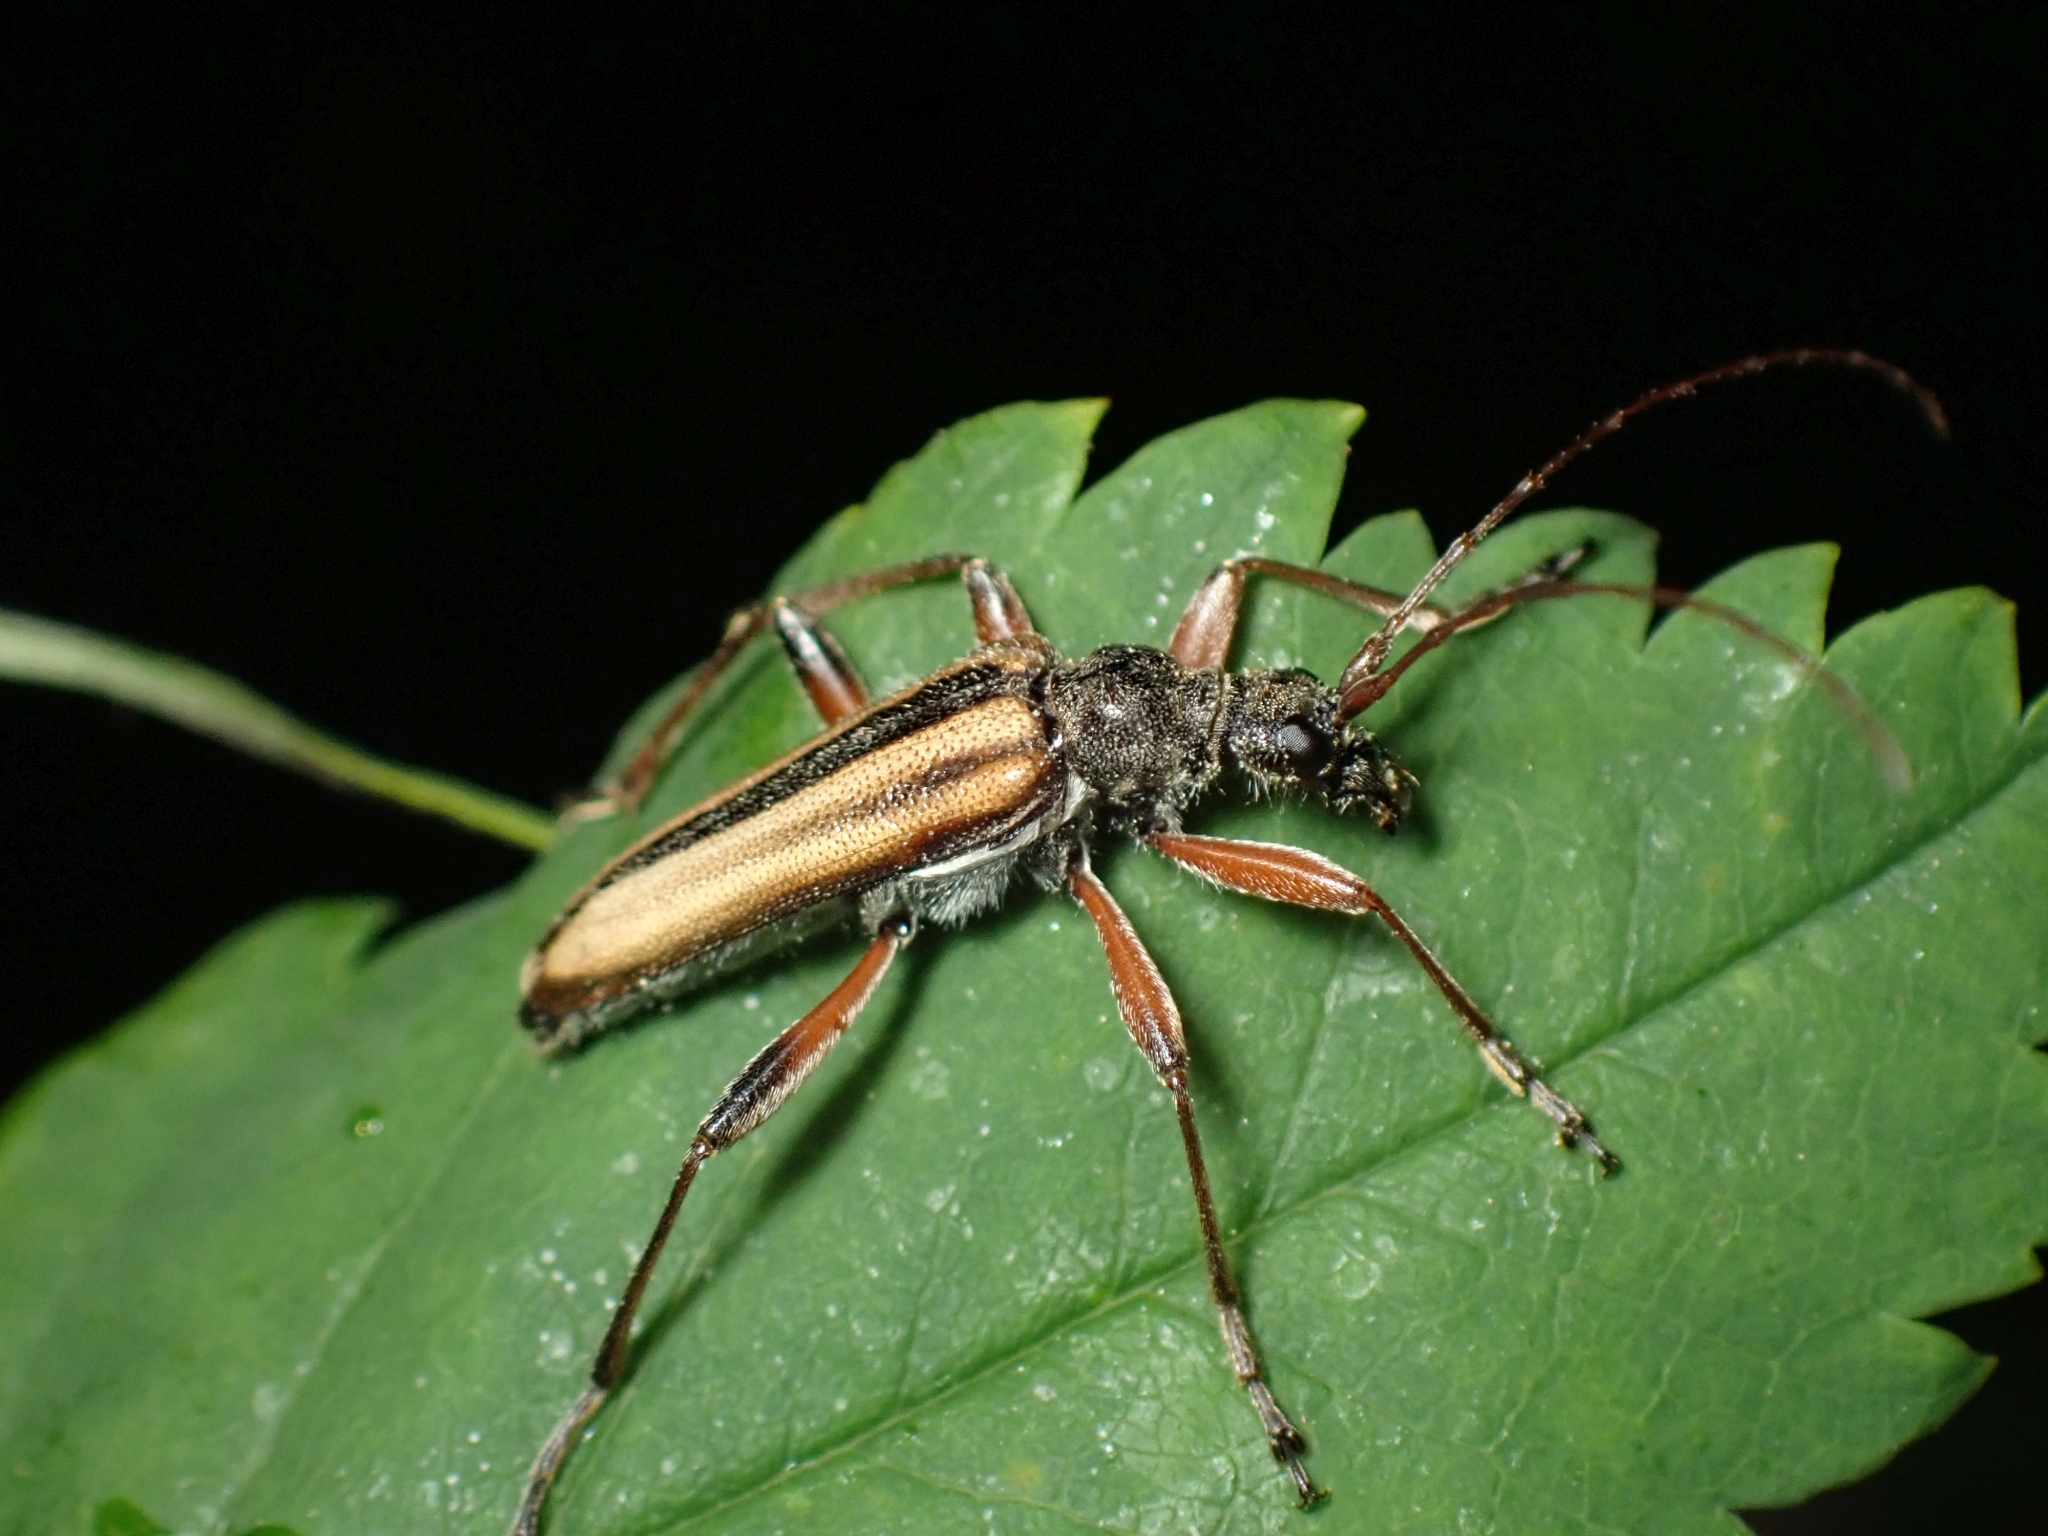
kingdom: Animalia
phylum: Arthropoda
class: Insecta
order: Coleoptera
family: Cerambycidae
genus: Cortodera
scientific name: Cortodera longicornis
